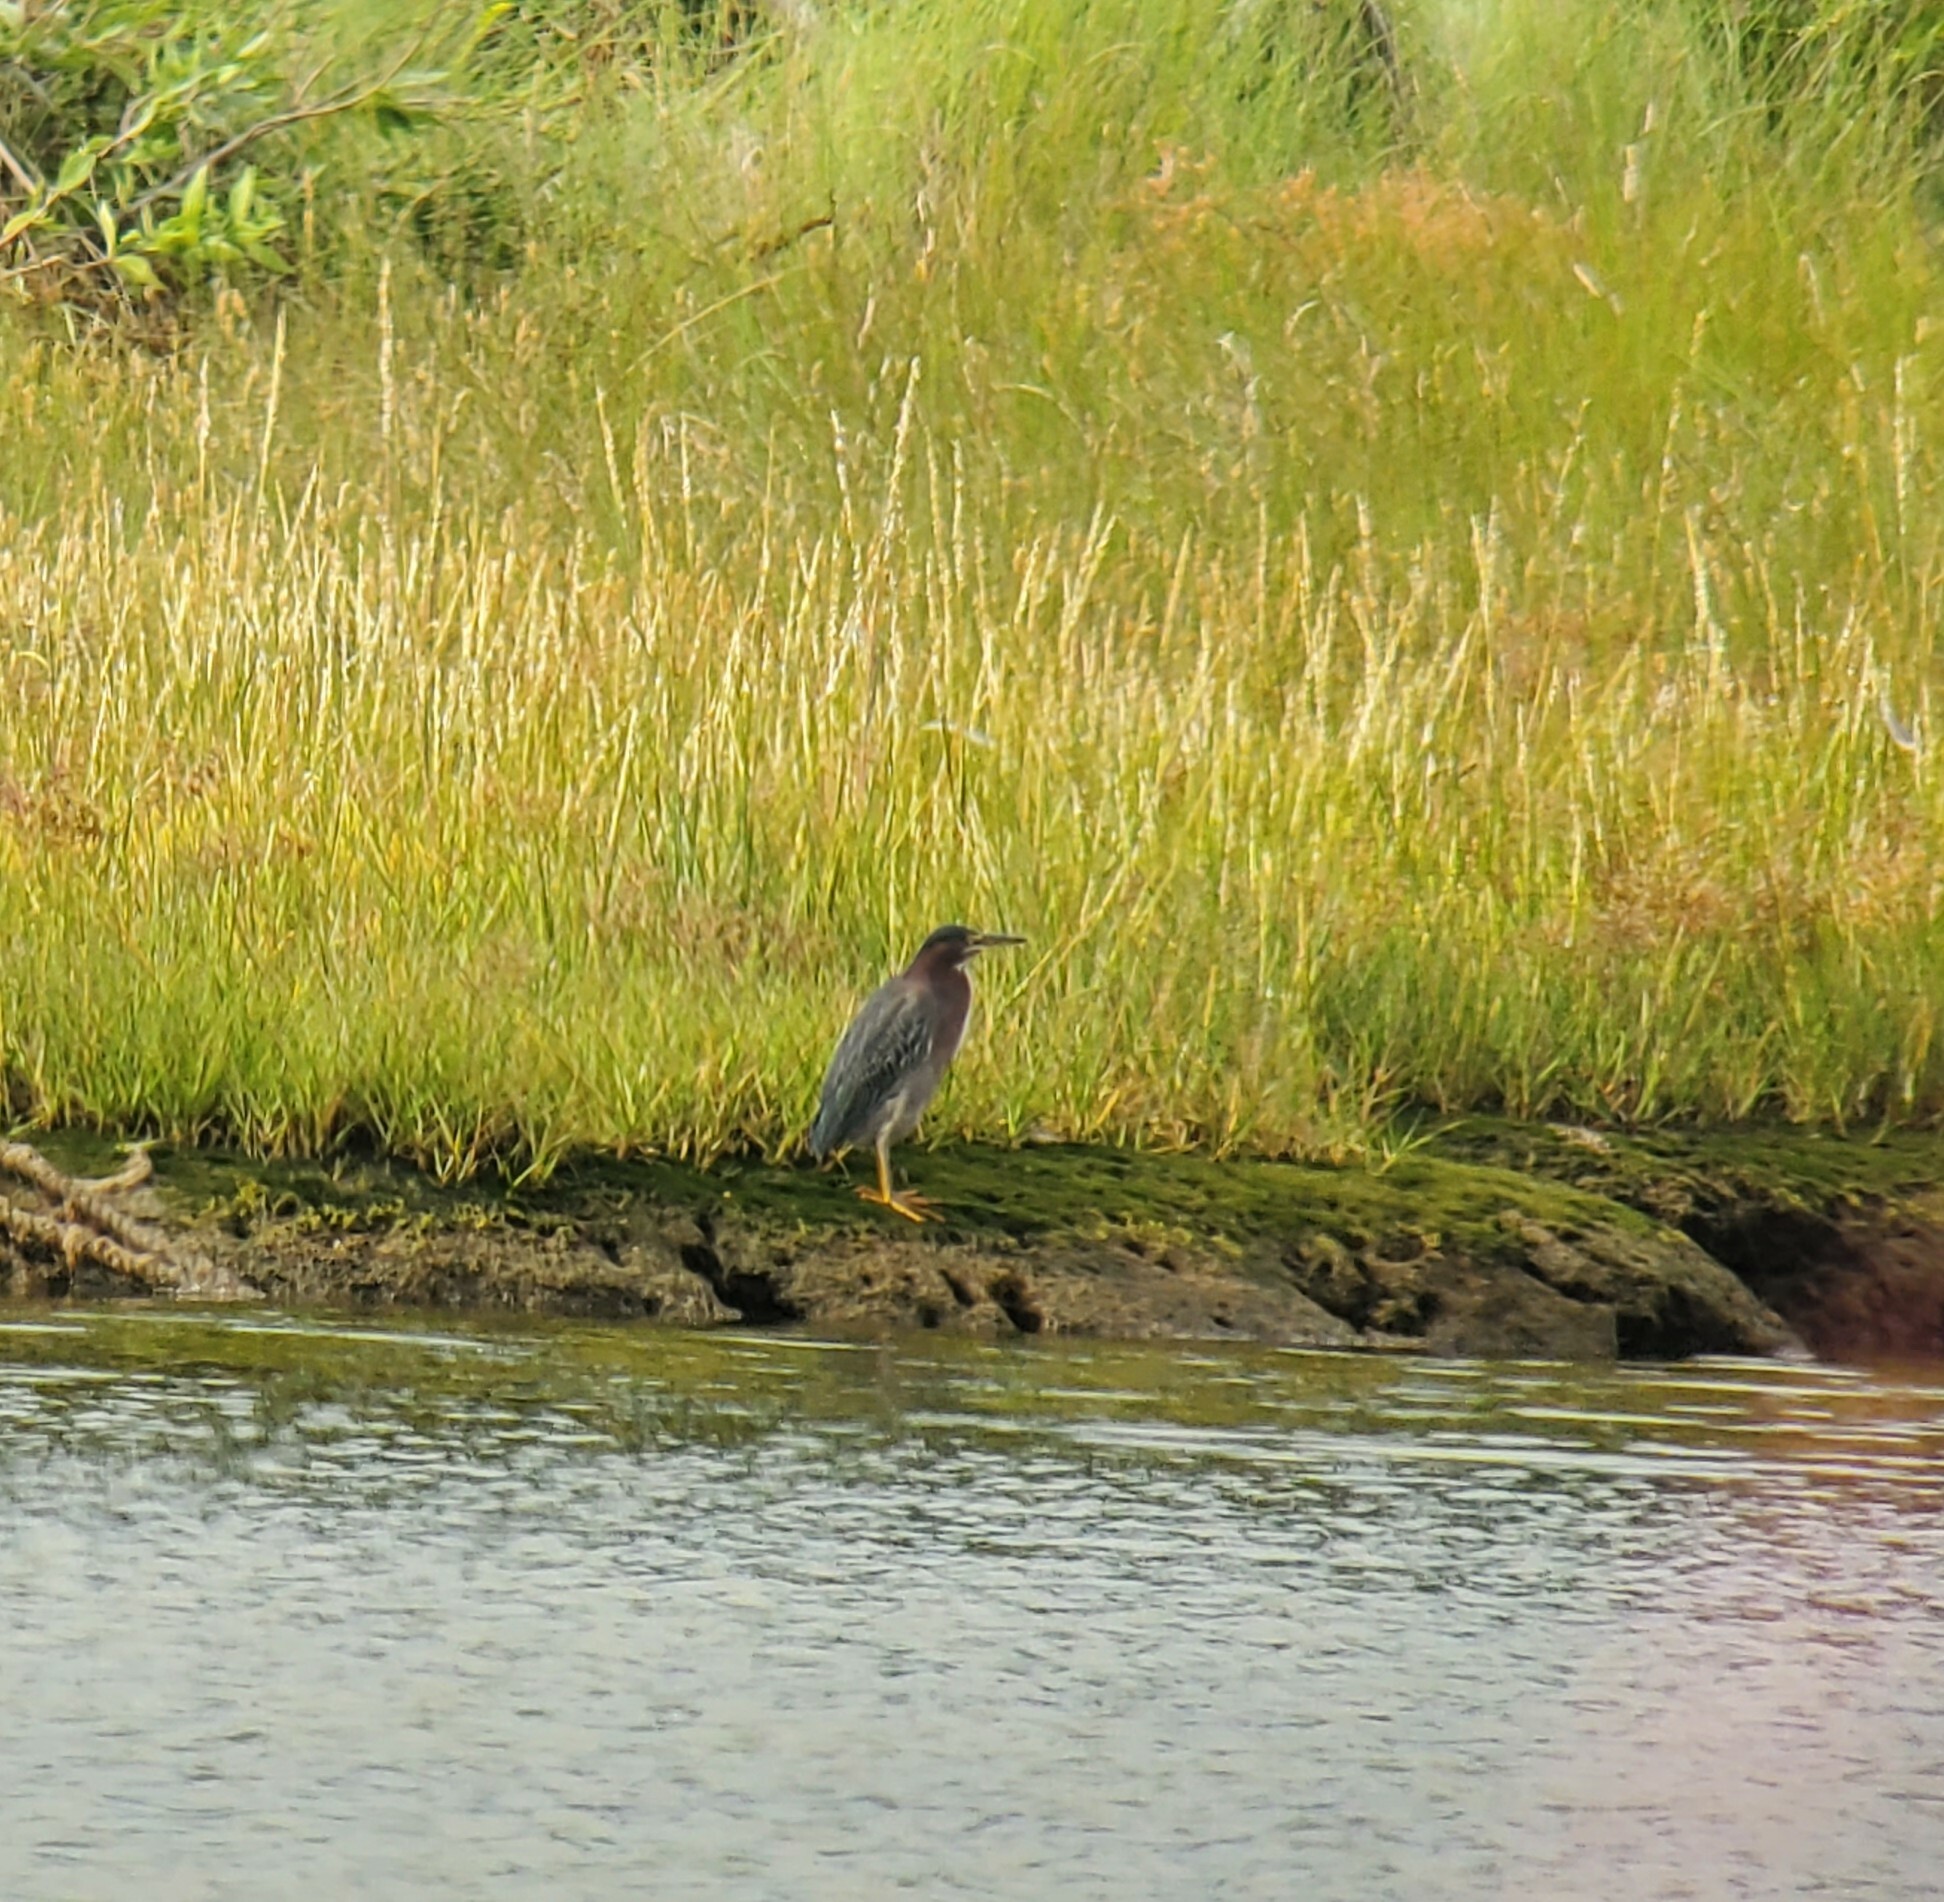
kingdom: Animalia
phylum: Chordata
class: Aves
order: Pelecaniformes
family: Ardeidae
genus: Butorides
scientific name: Butorides virescens
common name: Green heron
